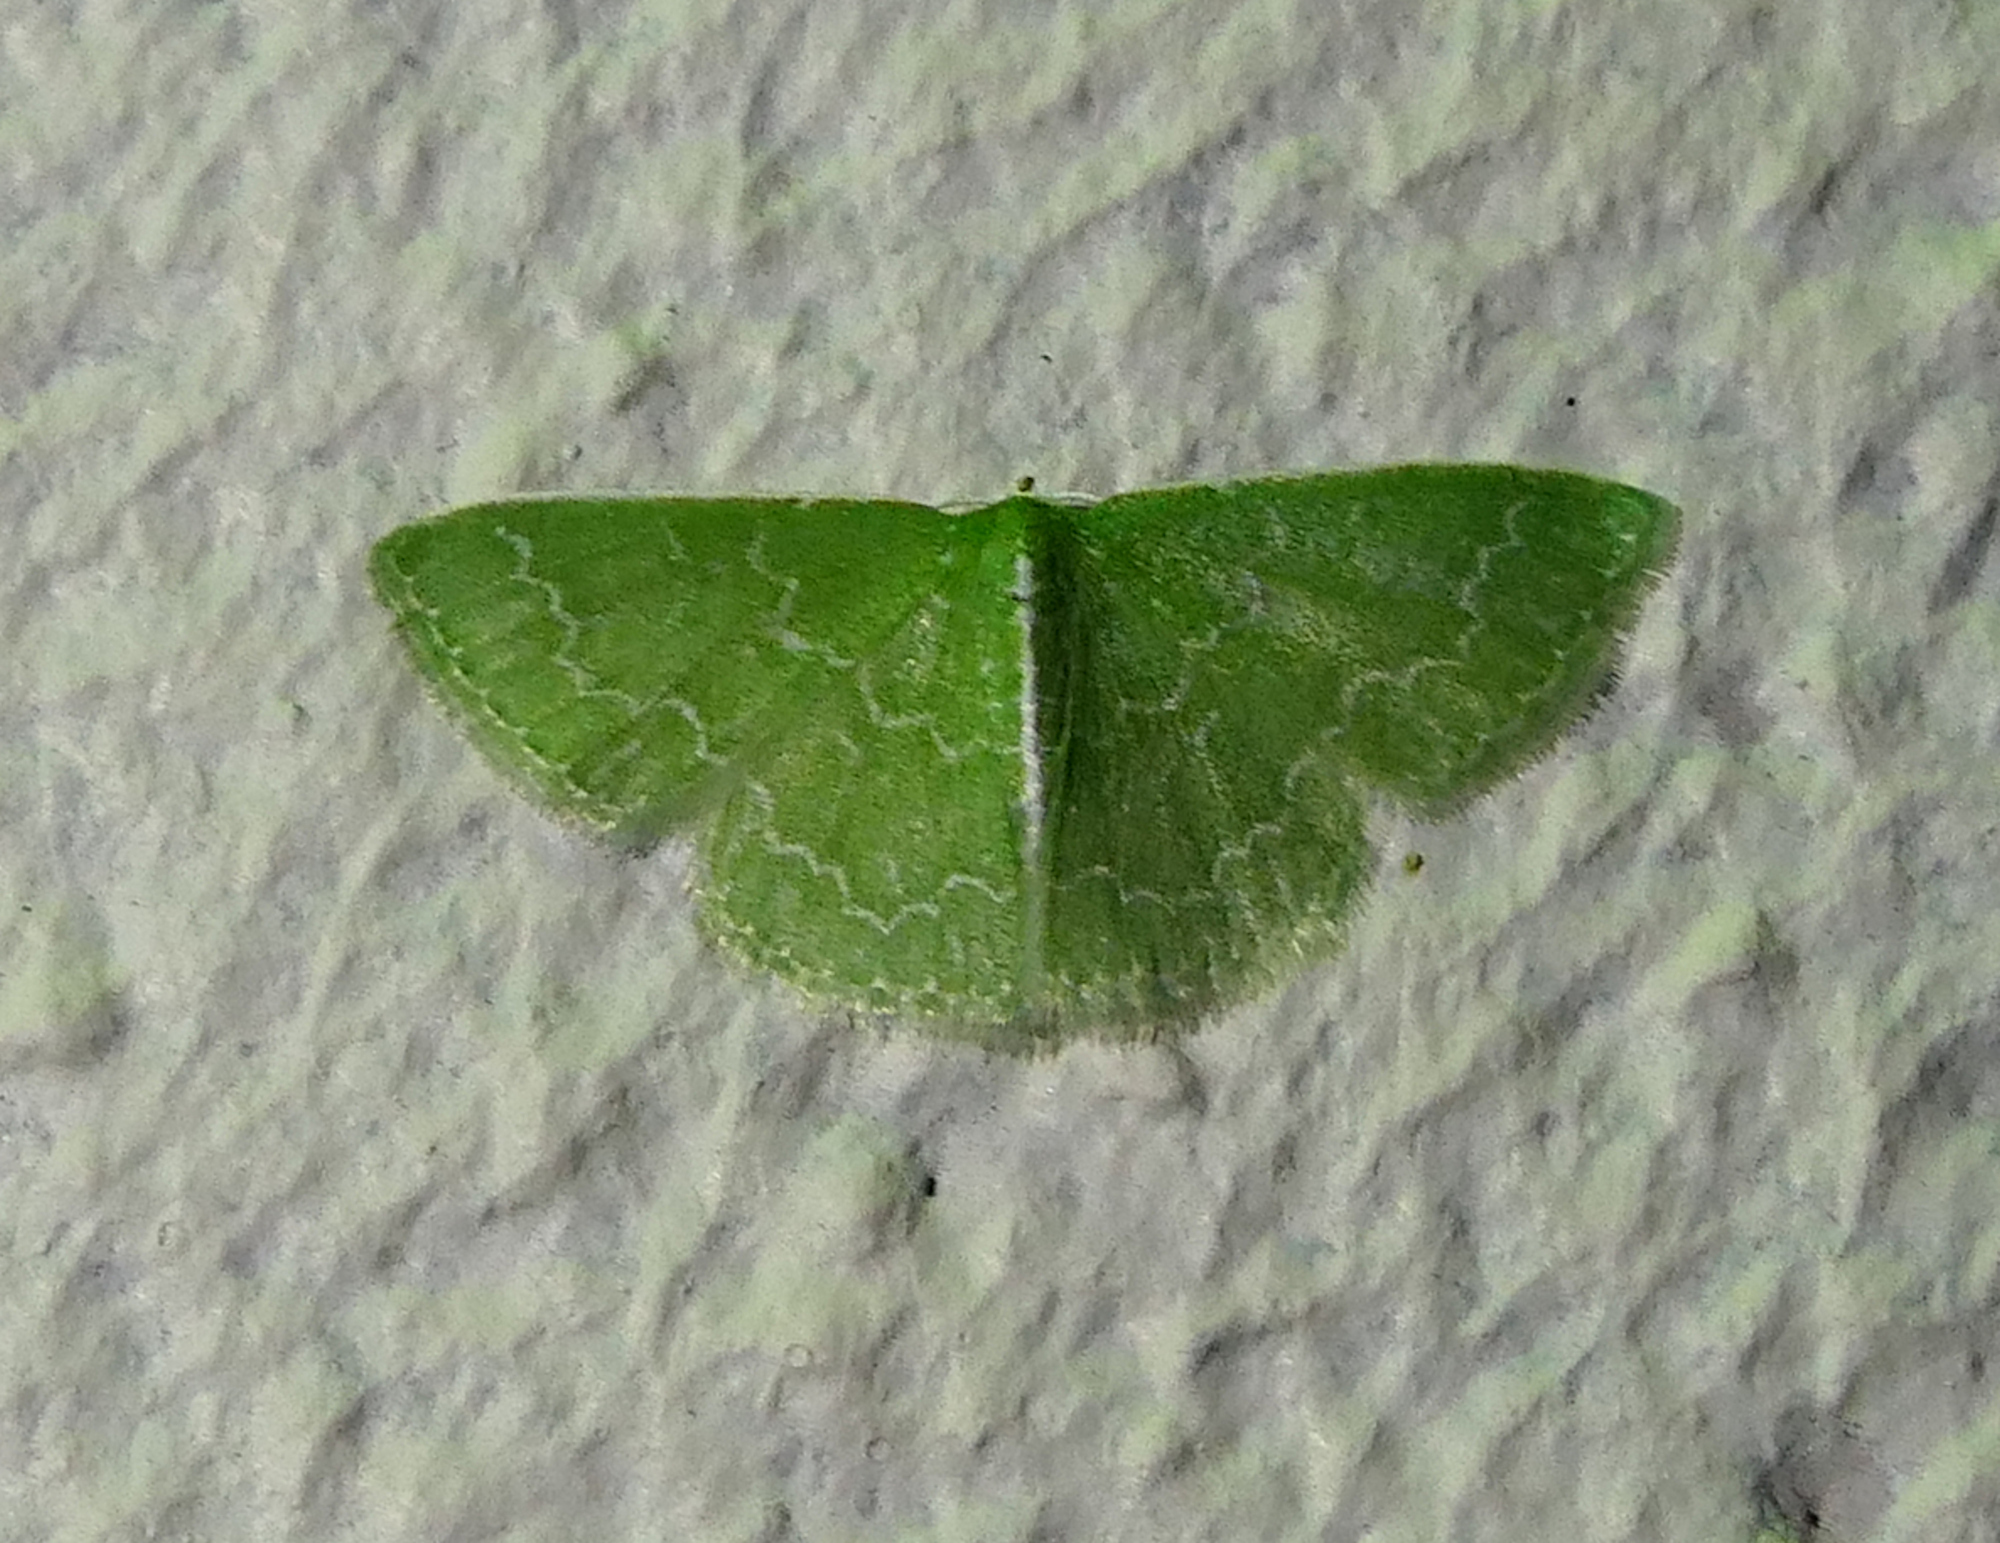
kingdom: Animalia
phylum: Arthropoda
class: Insecta
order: Lepidoptera
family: Geometridae
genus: Synchlora
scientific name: Synchlora frondaria
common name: Southern emerald
